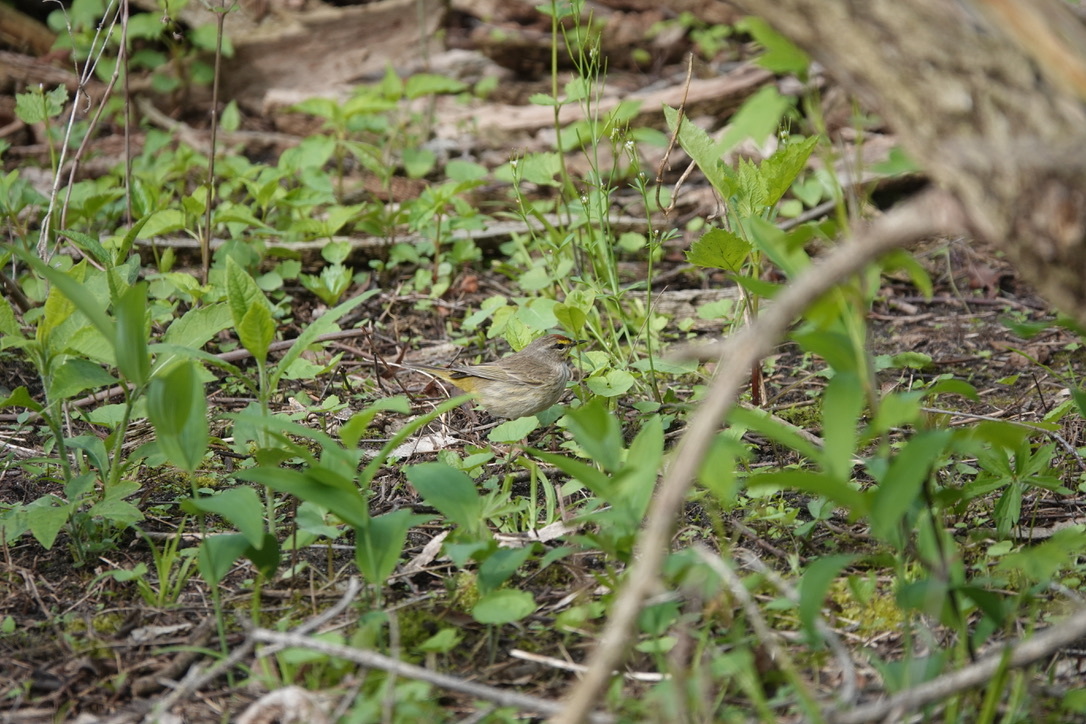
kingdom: Animalia
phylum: Chordata
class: Aves
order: Passeriformes
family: Parulidae
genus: Setophaga
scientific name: Setophaga palmarum
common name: Palm warbler
